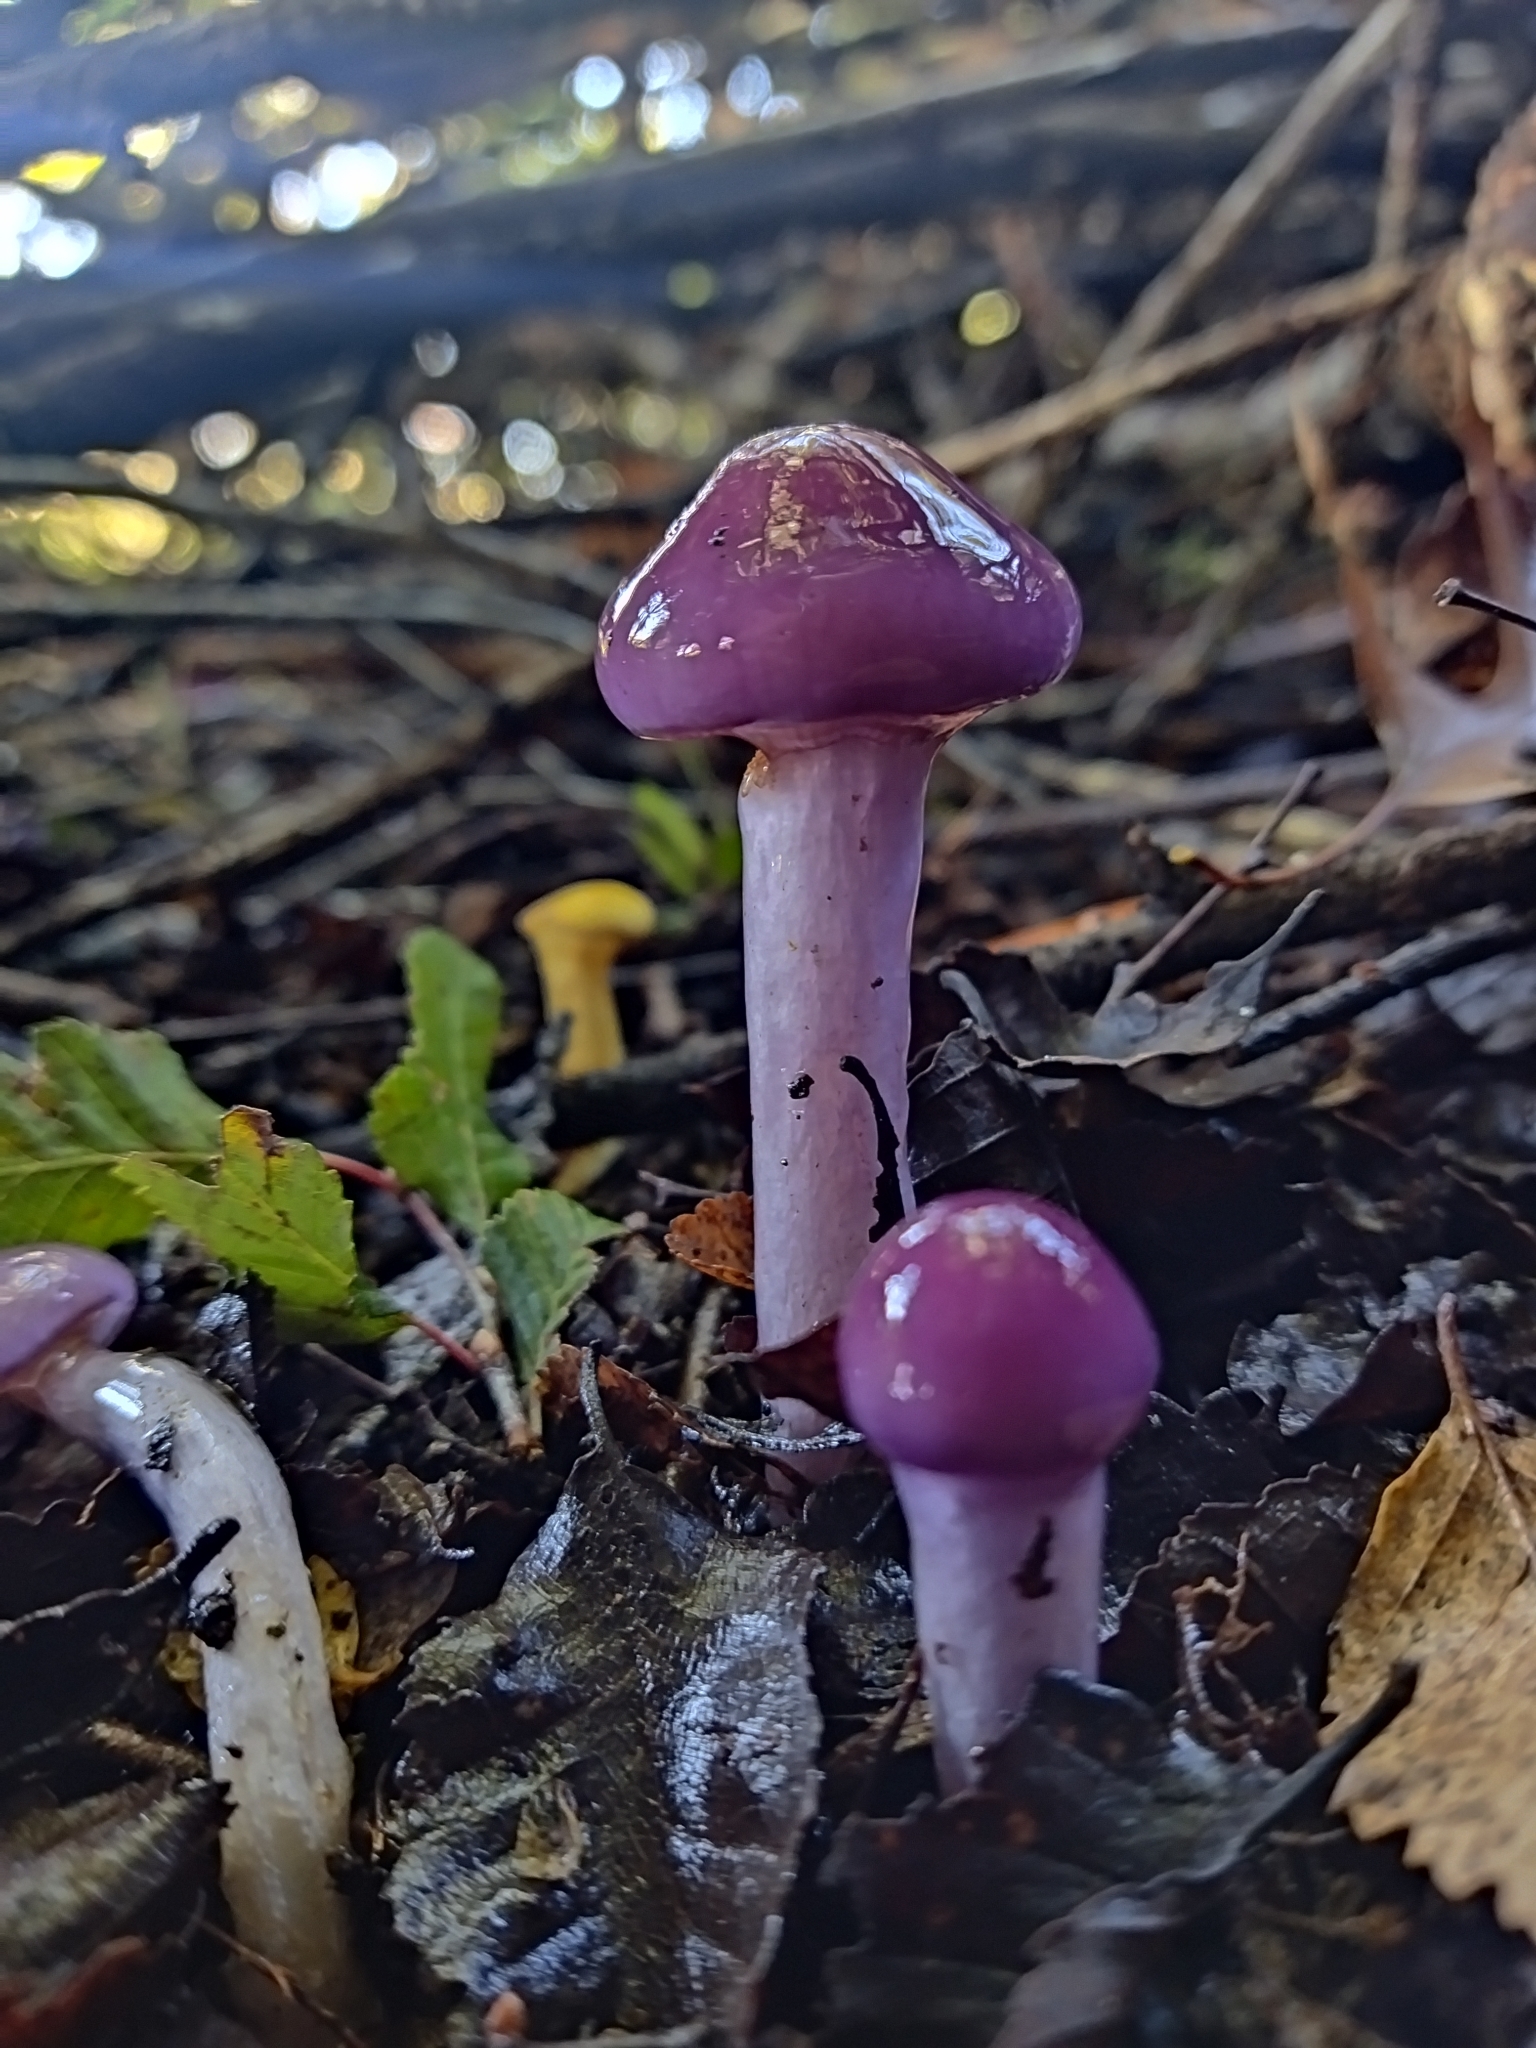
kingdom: Fungi
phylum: Basidiomycota
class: Agaricomycetes
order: Agaricales
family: Cortinariaceae
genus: Cortinarius
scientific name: Cortinarius magellanicus
